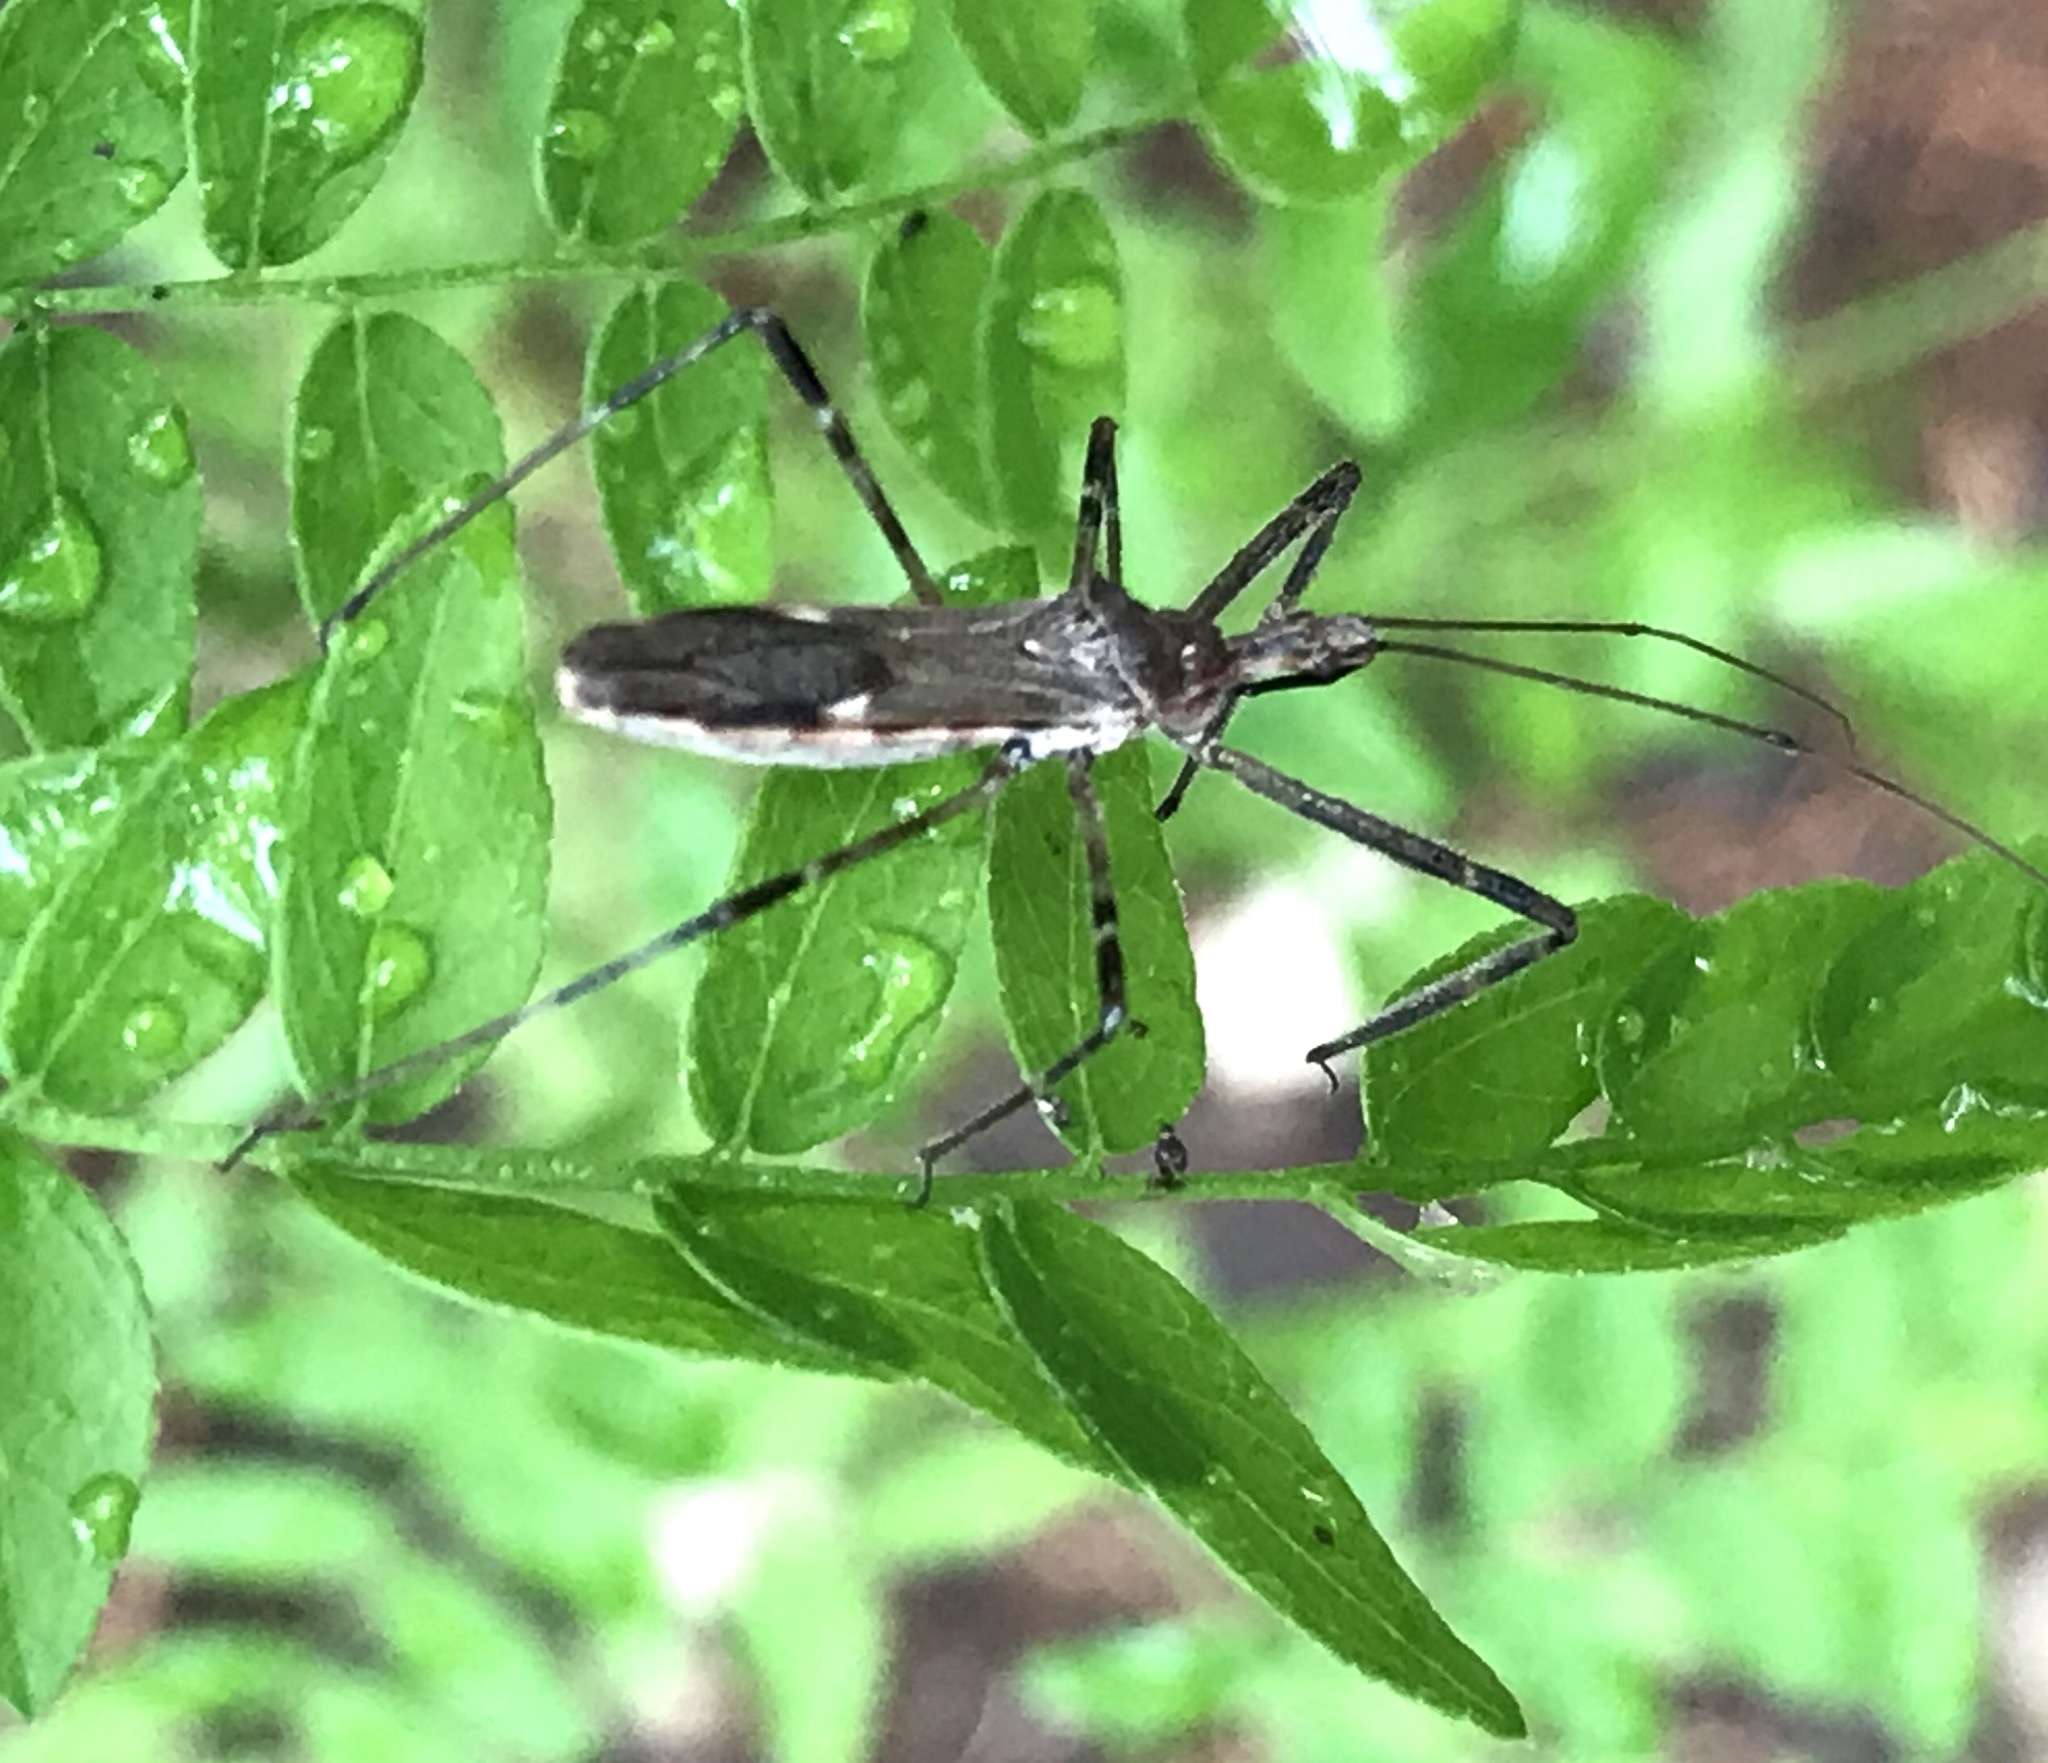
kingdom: Animalia
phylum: Arthropoda
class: Insecta
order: Hemiptera
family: Reduviidae
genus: Zelus
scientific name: Zelus tetracanthus
